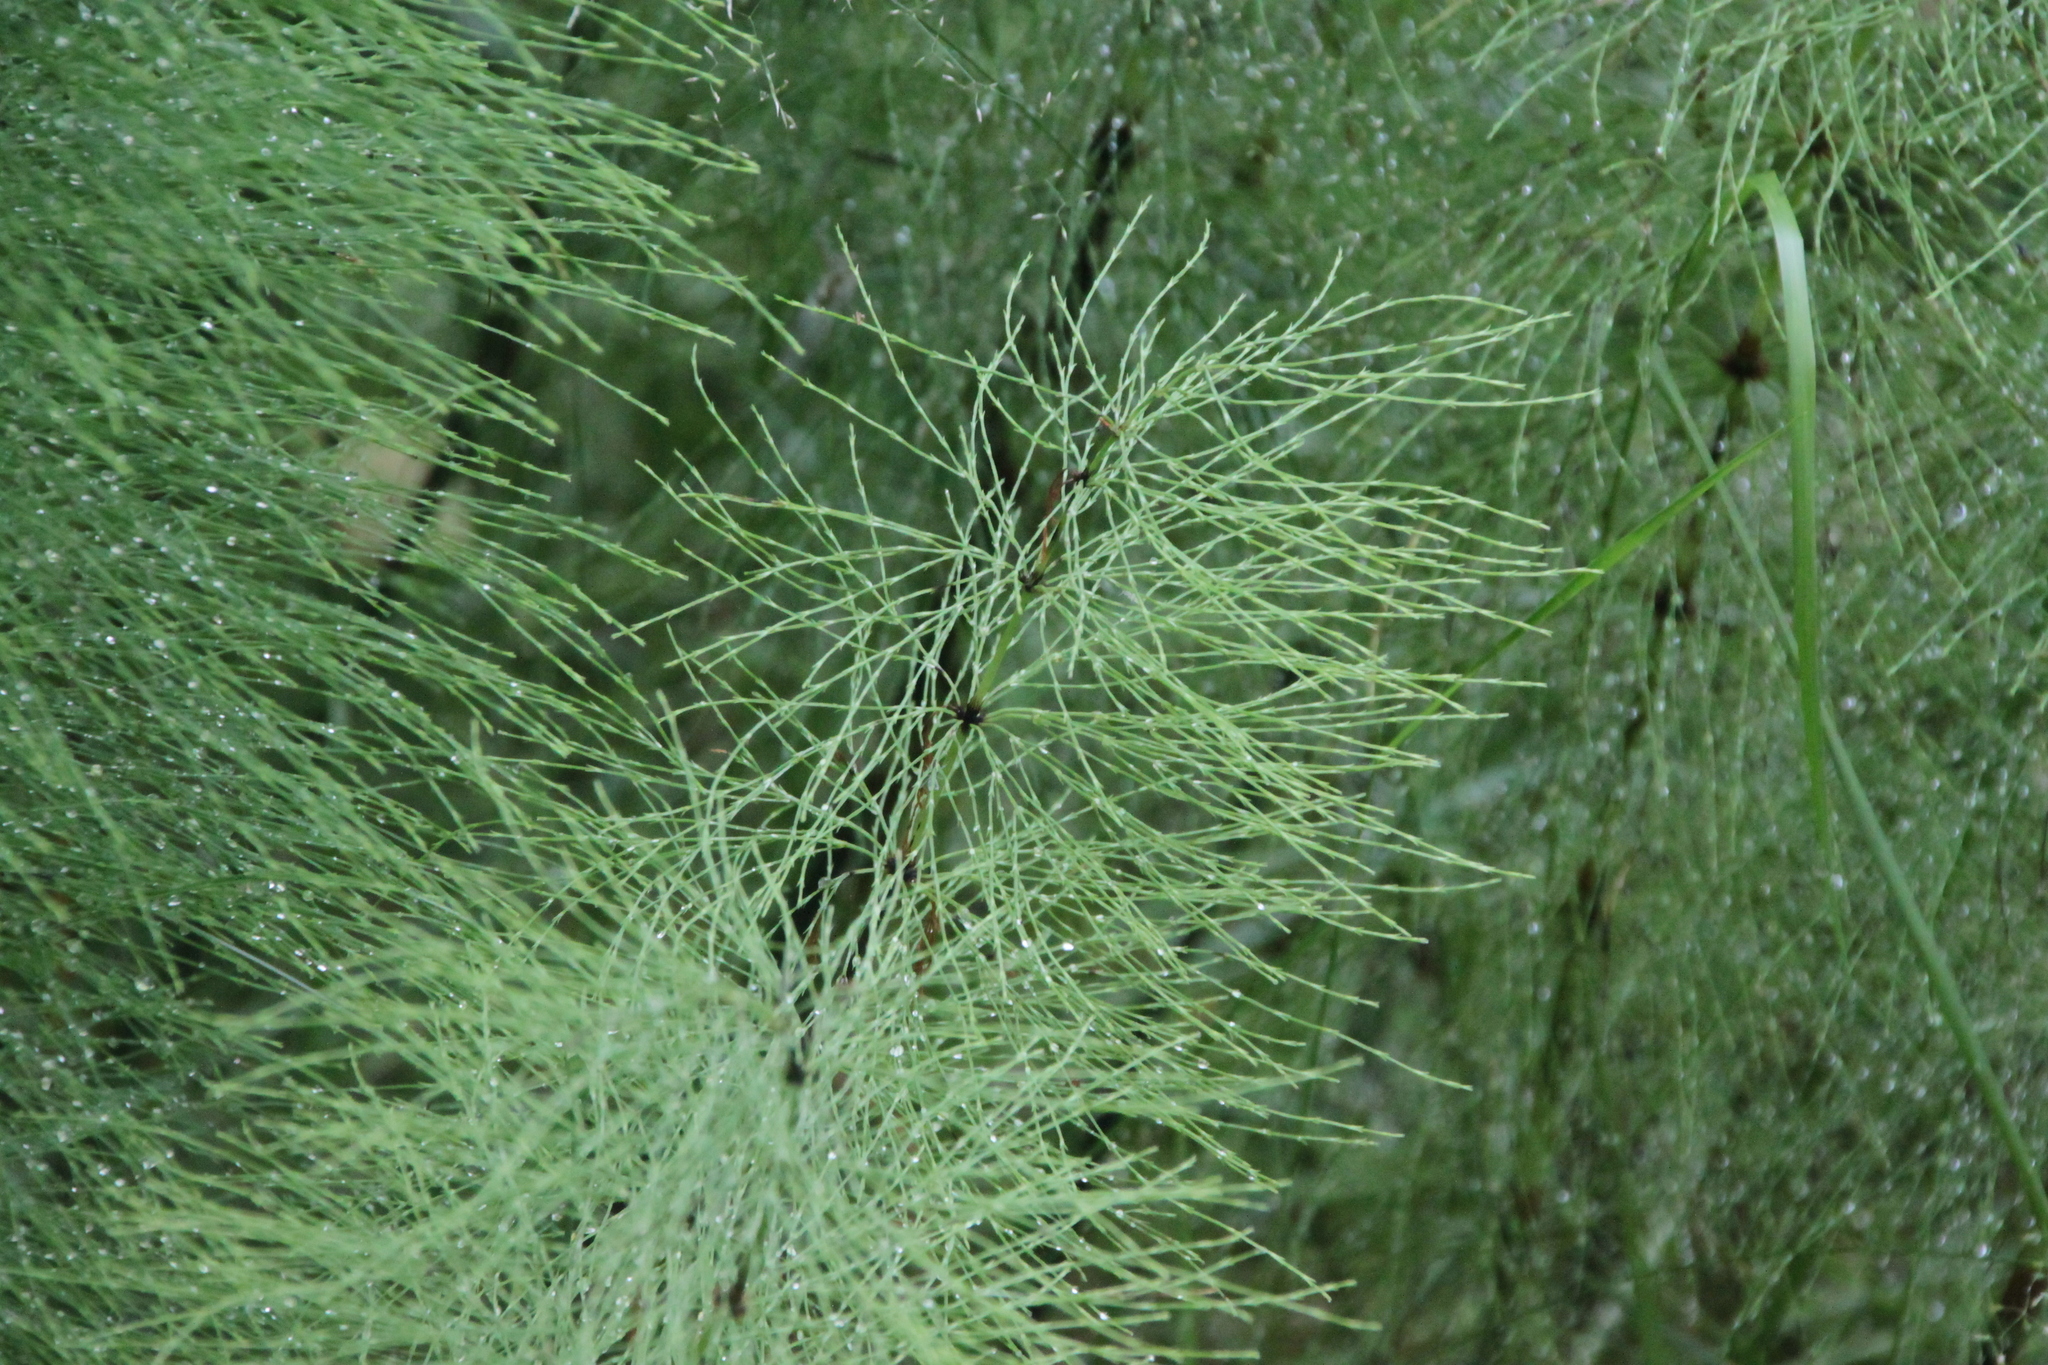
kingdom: Plantae
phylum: Tracheophyta
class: Polypodiopsida
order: Equisetales
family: Equisetaceae
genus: Equisetum
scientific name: Equisetum sylvaticum
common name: Wood horsetail
